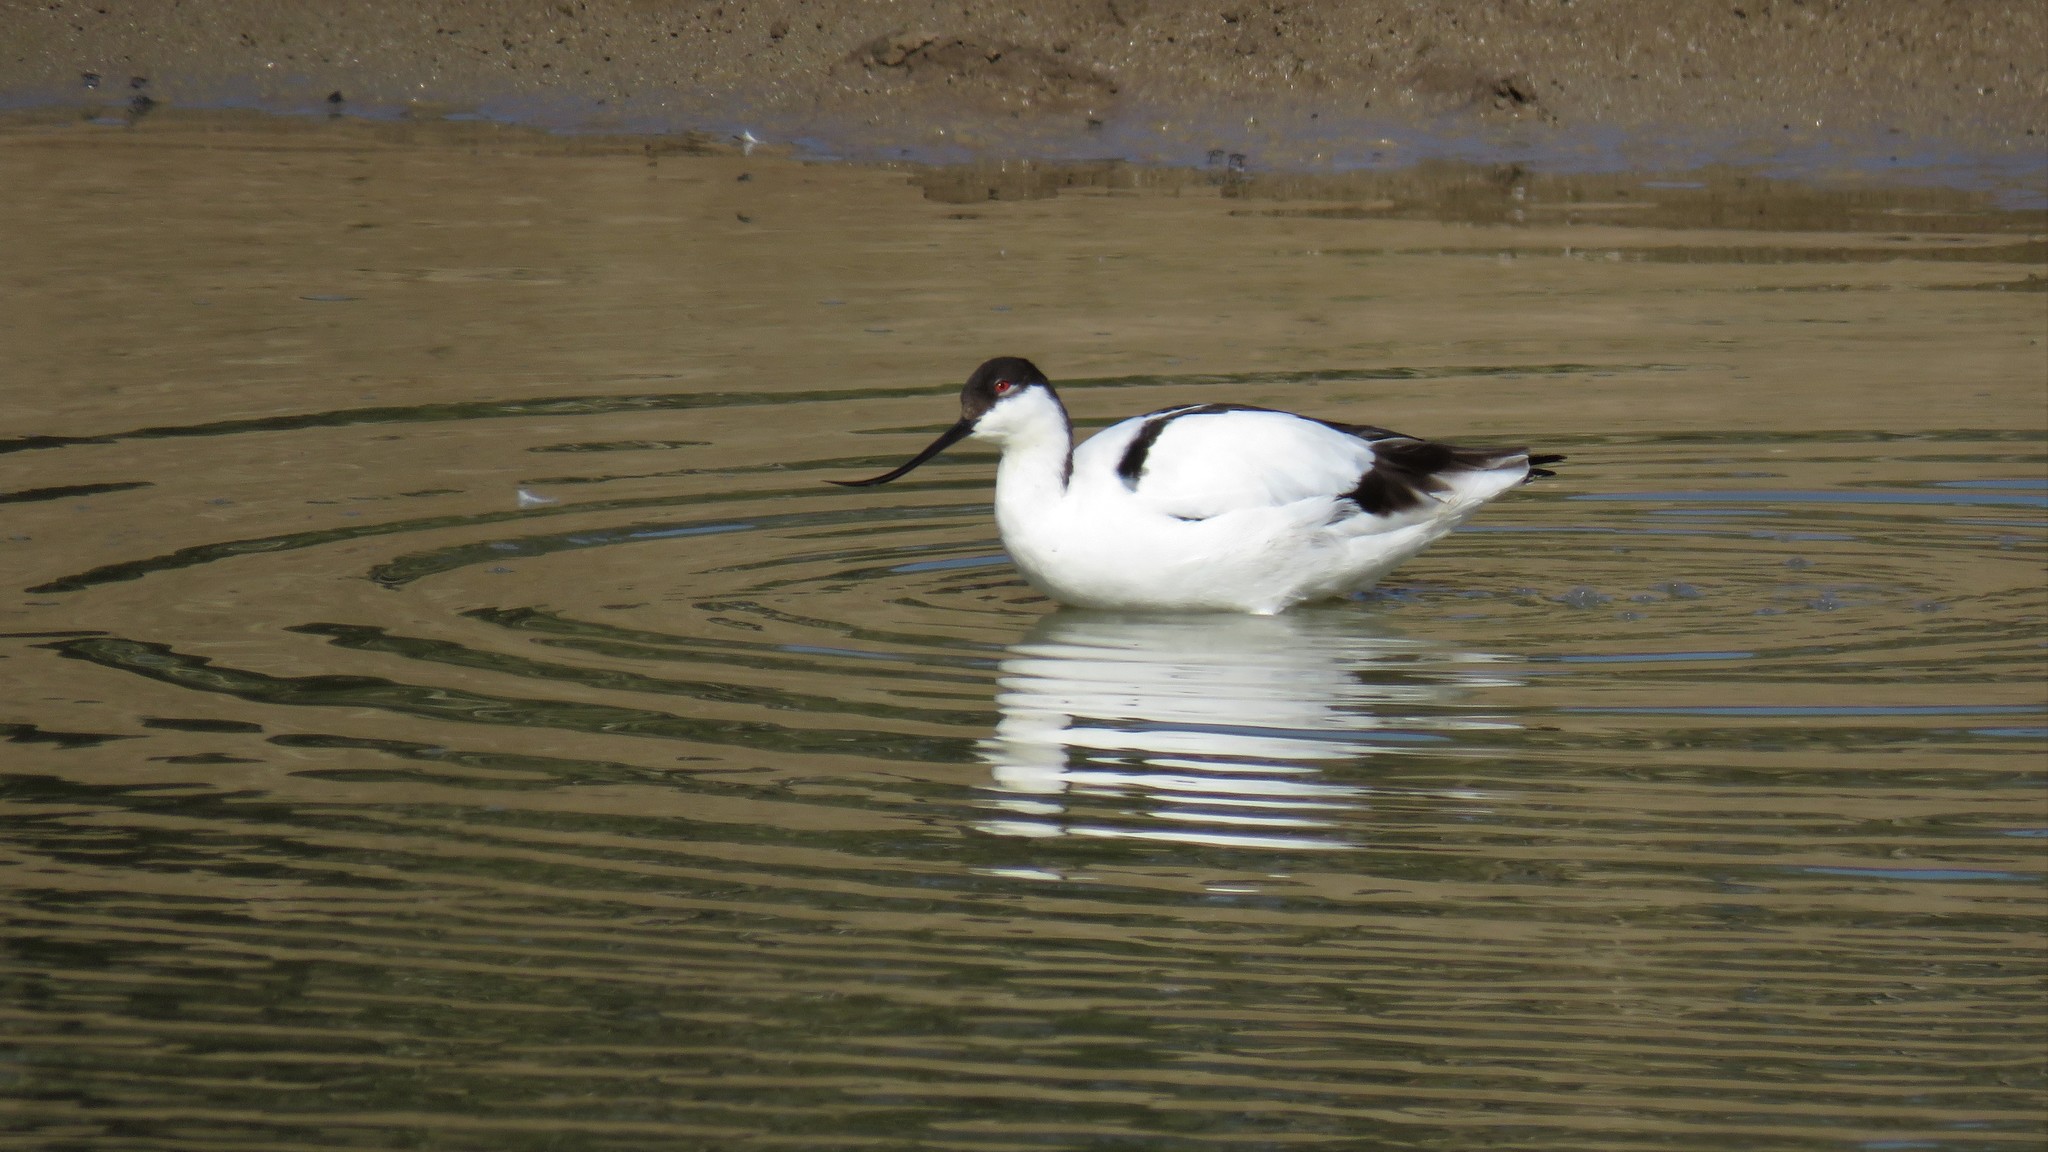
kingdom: Animalia
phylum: Chordata
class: Aves
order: Charadriiformes
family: Recurvirostridae
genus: Recurvirostra
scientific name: Recurvirostra avosetta
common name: Pied avocet
